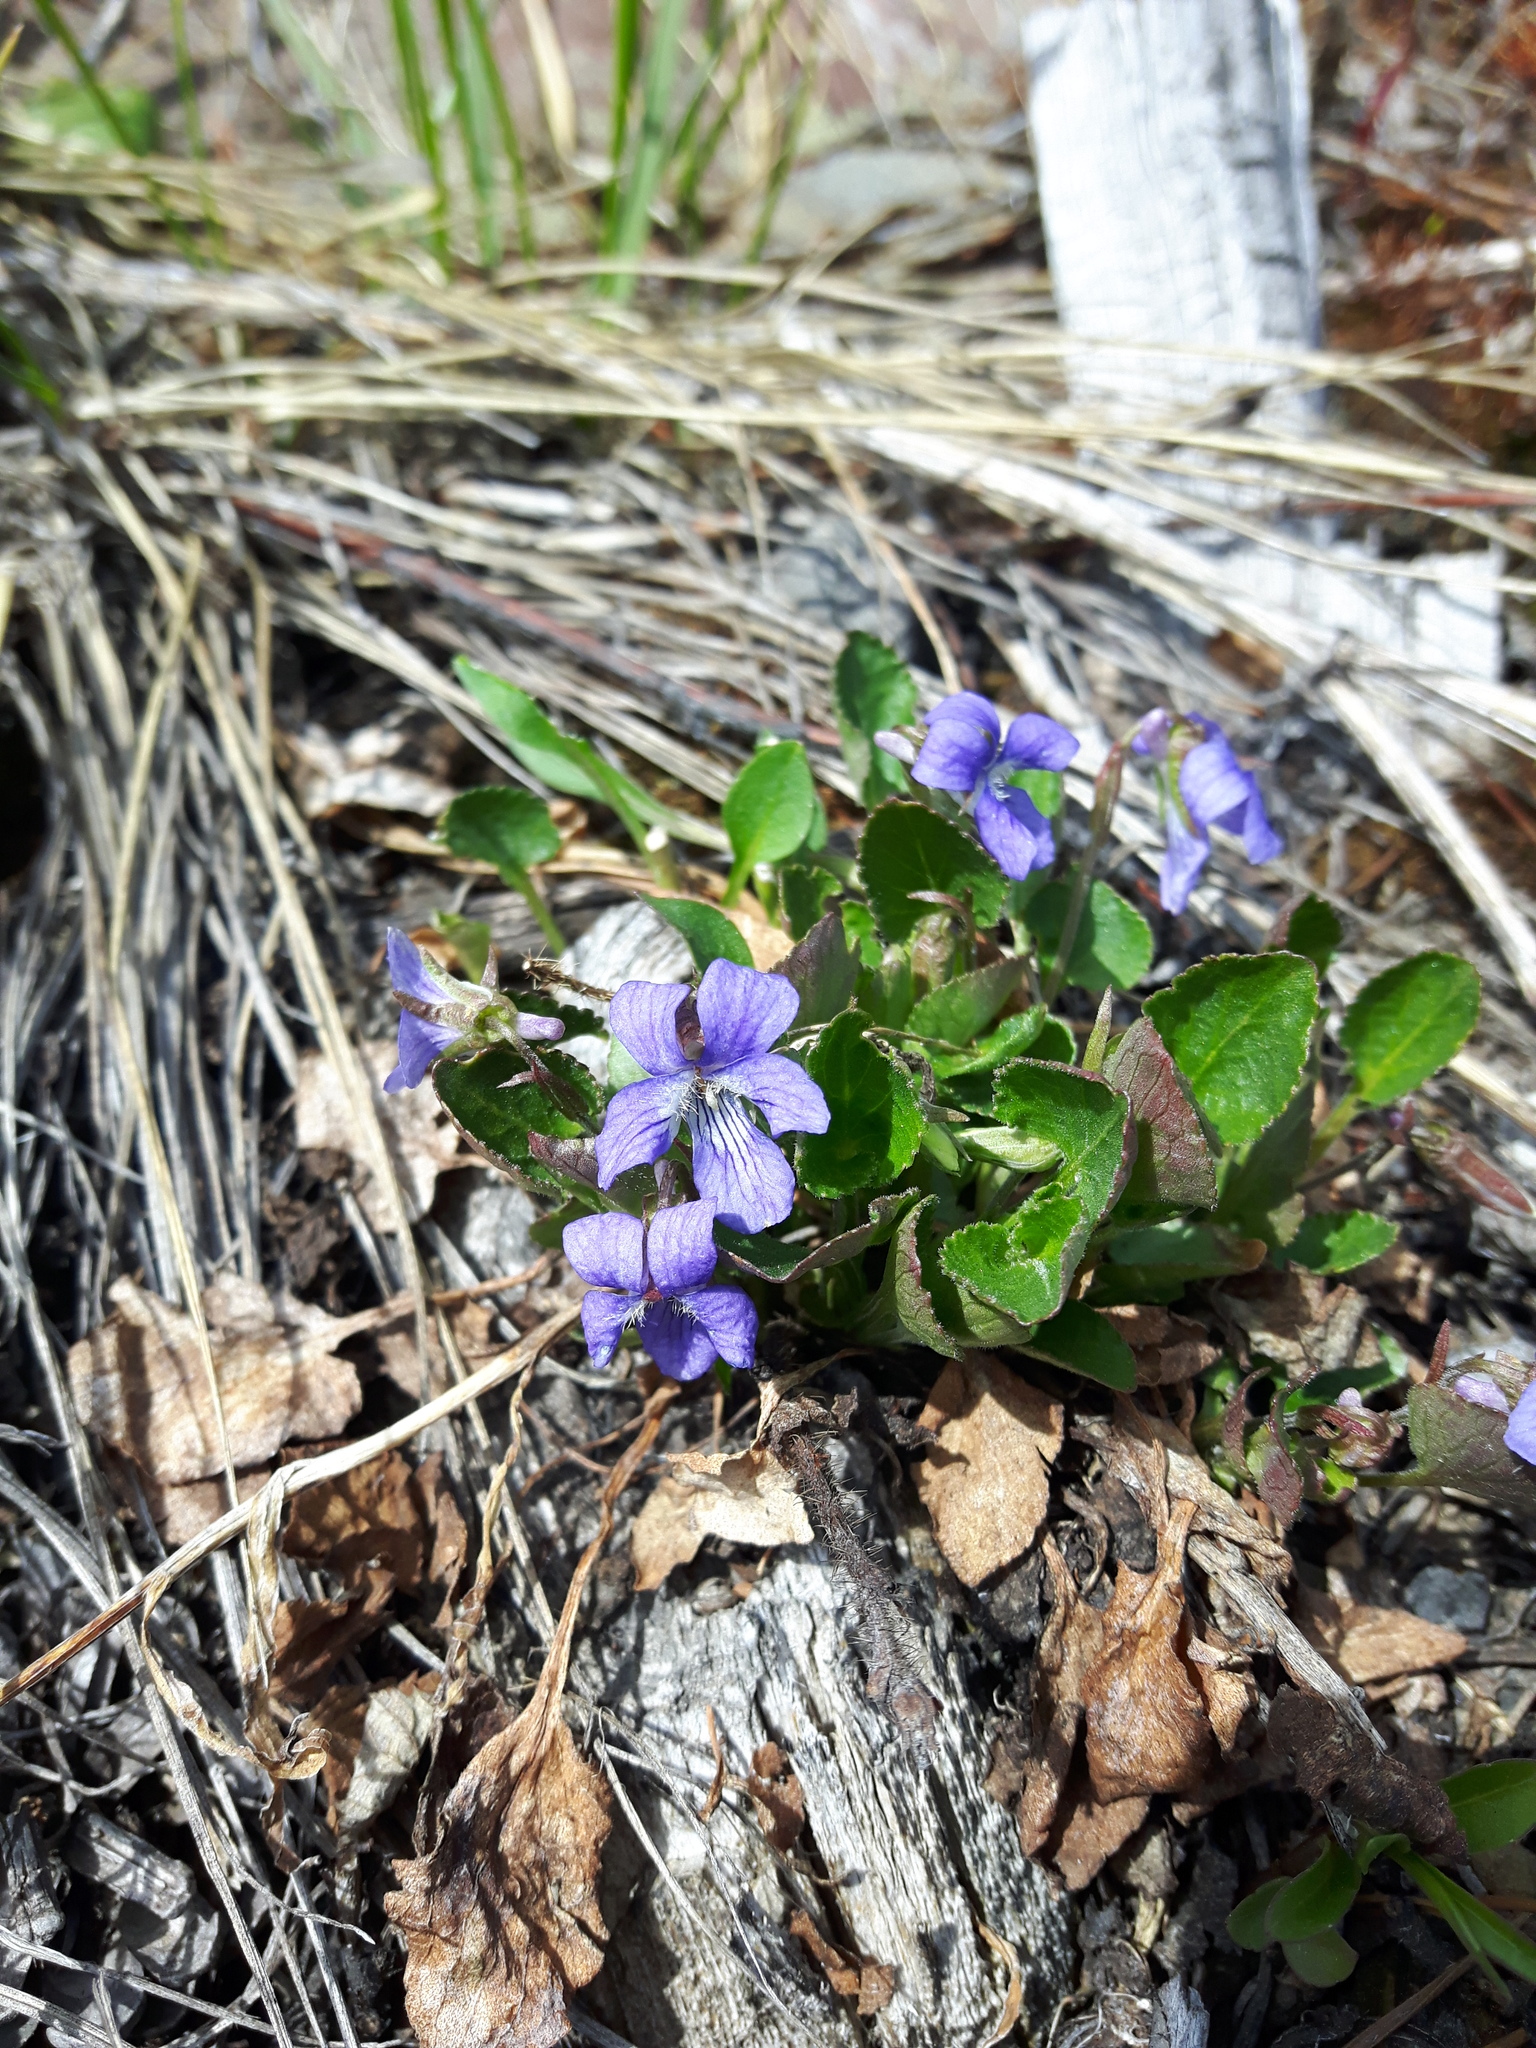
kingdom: Plantae
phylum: Tracheophyta
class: Magnoliopsida
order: Malpighiales
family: Violaceae
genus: Viola
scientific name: Viola adunca
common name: Sand violet
